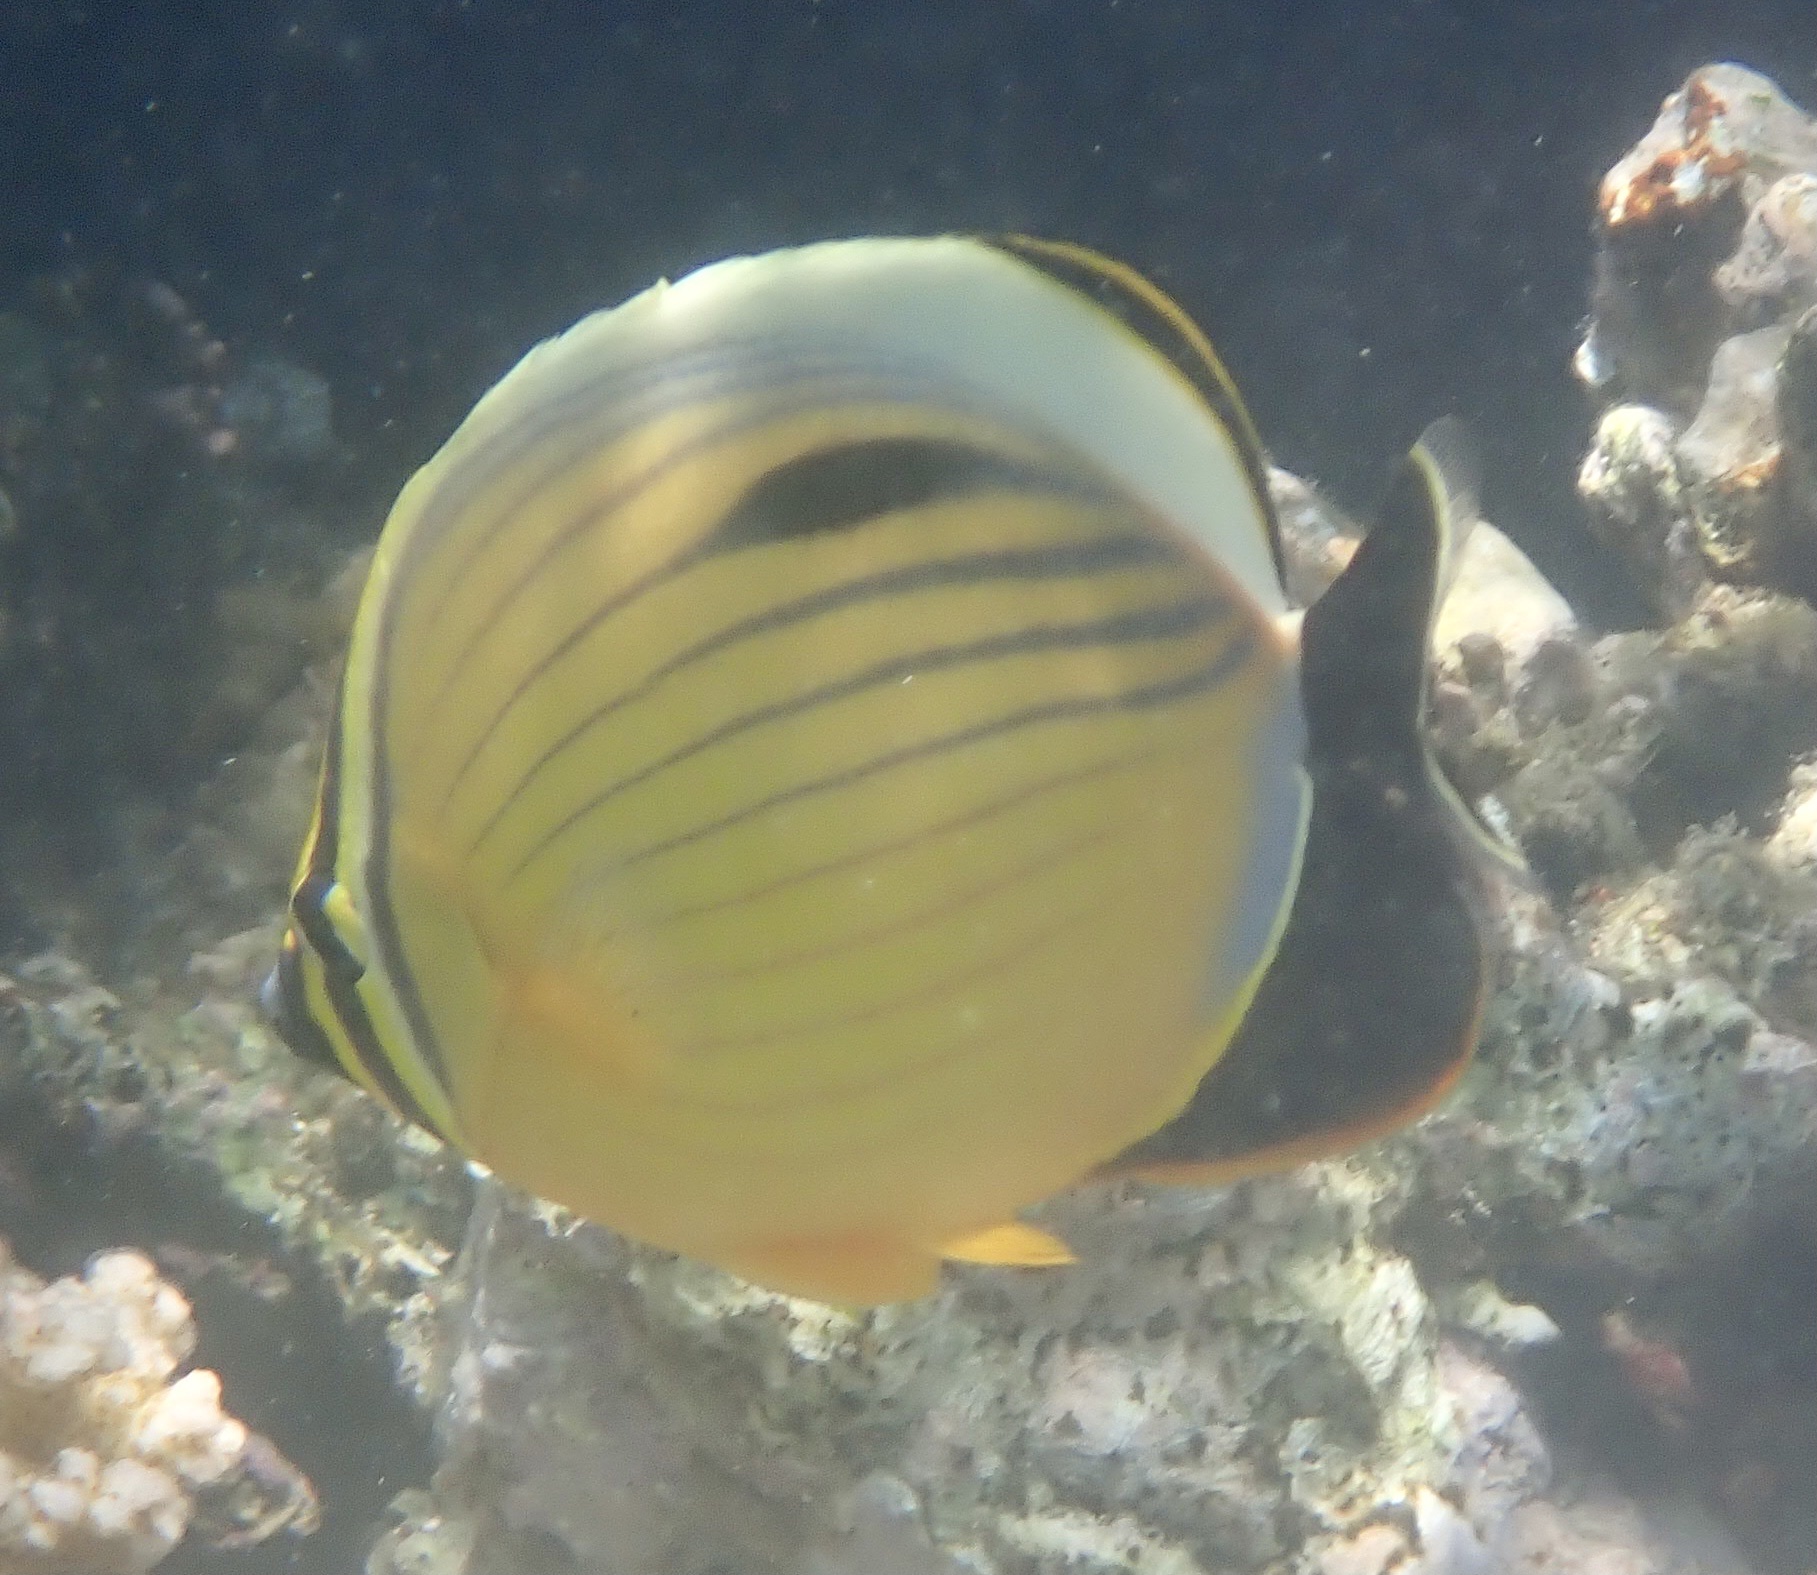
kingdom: Animalia
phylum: Chordata
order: Perciformes
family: Chaetodontidae
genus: Chaetodon
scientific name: Chaetodon austriacus
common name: Exquisite butterflyfish
